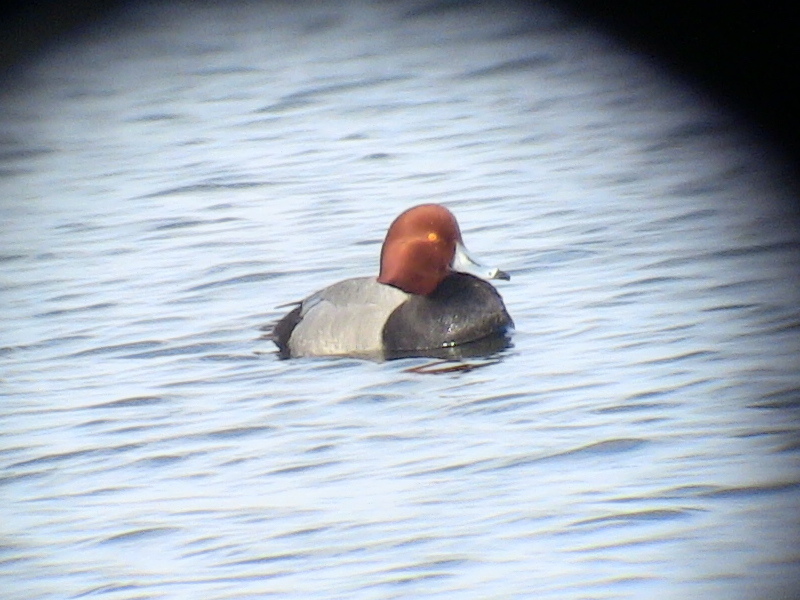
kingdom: Animalia
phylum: Chordata
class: Aves
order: Anseriformes
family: Anatidae
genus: Aythya
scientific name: Aythya americana
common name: Redhead
